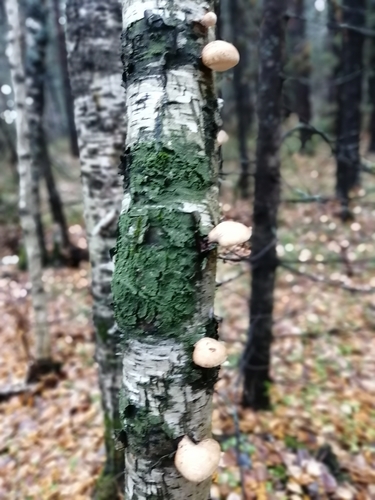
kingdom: Fungi
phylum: Basidiomycota
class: Agaricomycetes
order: Polyporales
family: Fomitopsidaceae
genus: Fomitopsis
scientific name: Fomitopsis betulina
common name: Birch polypore
